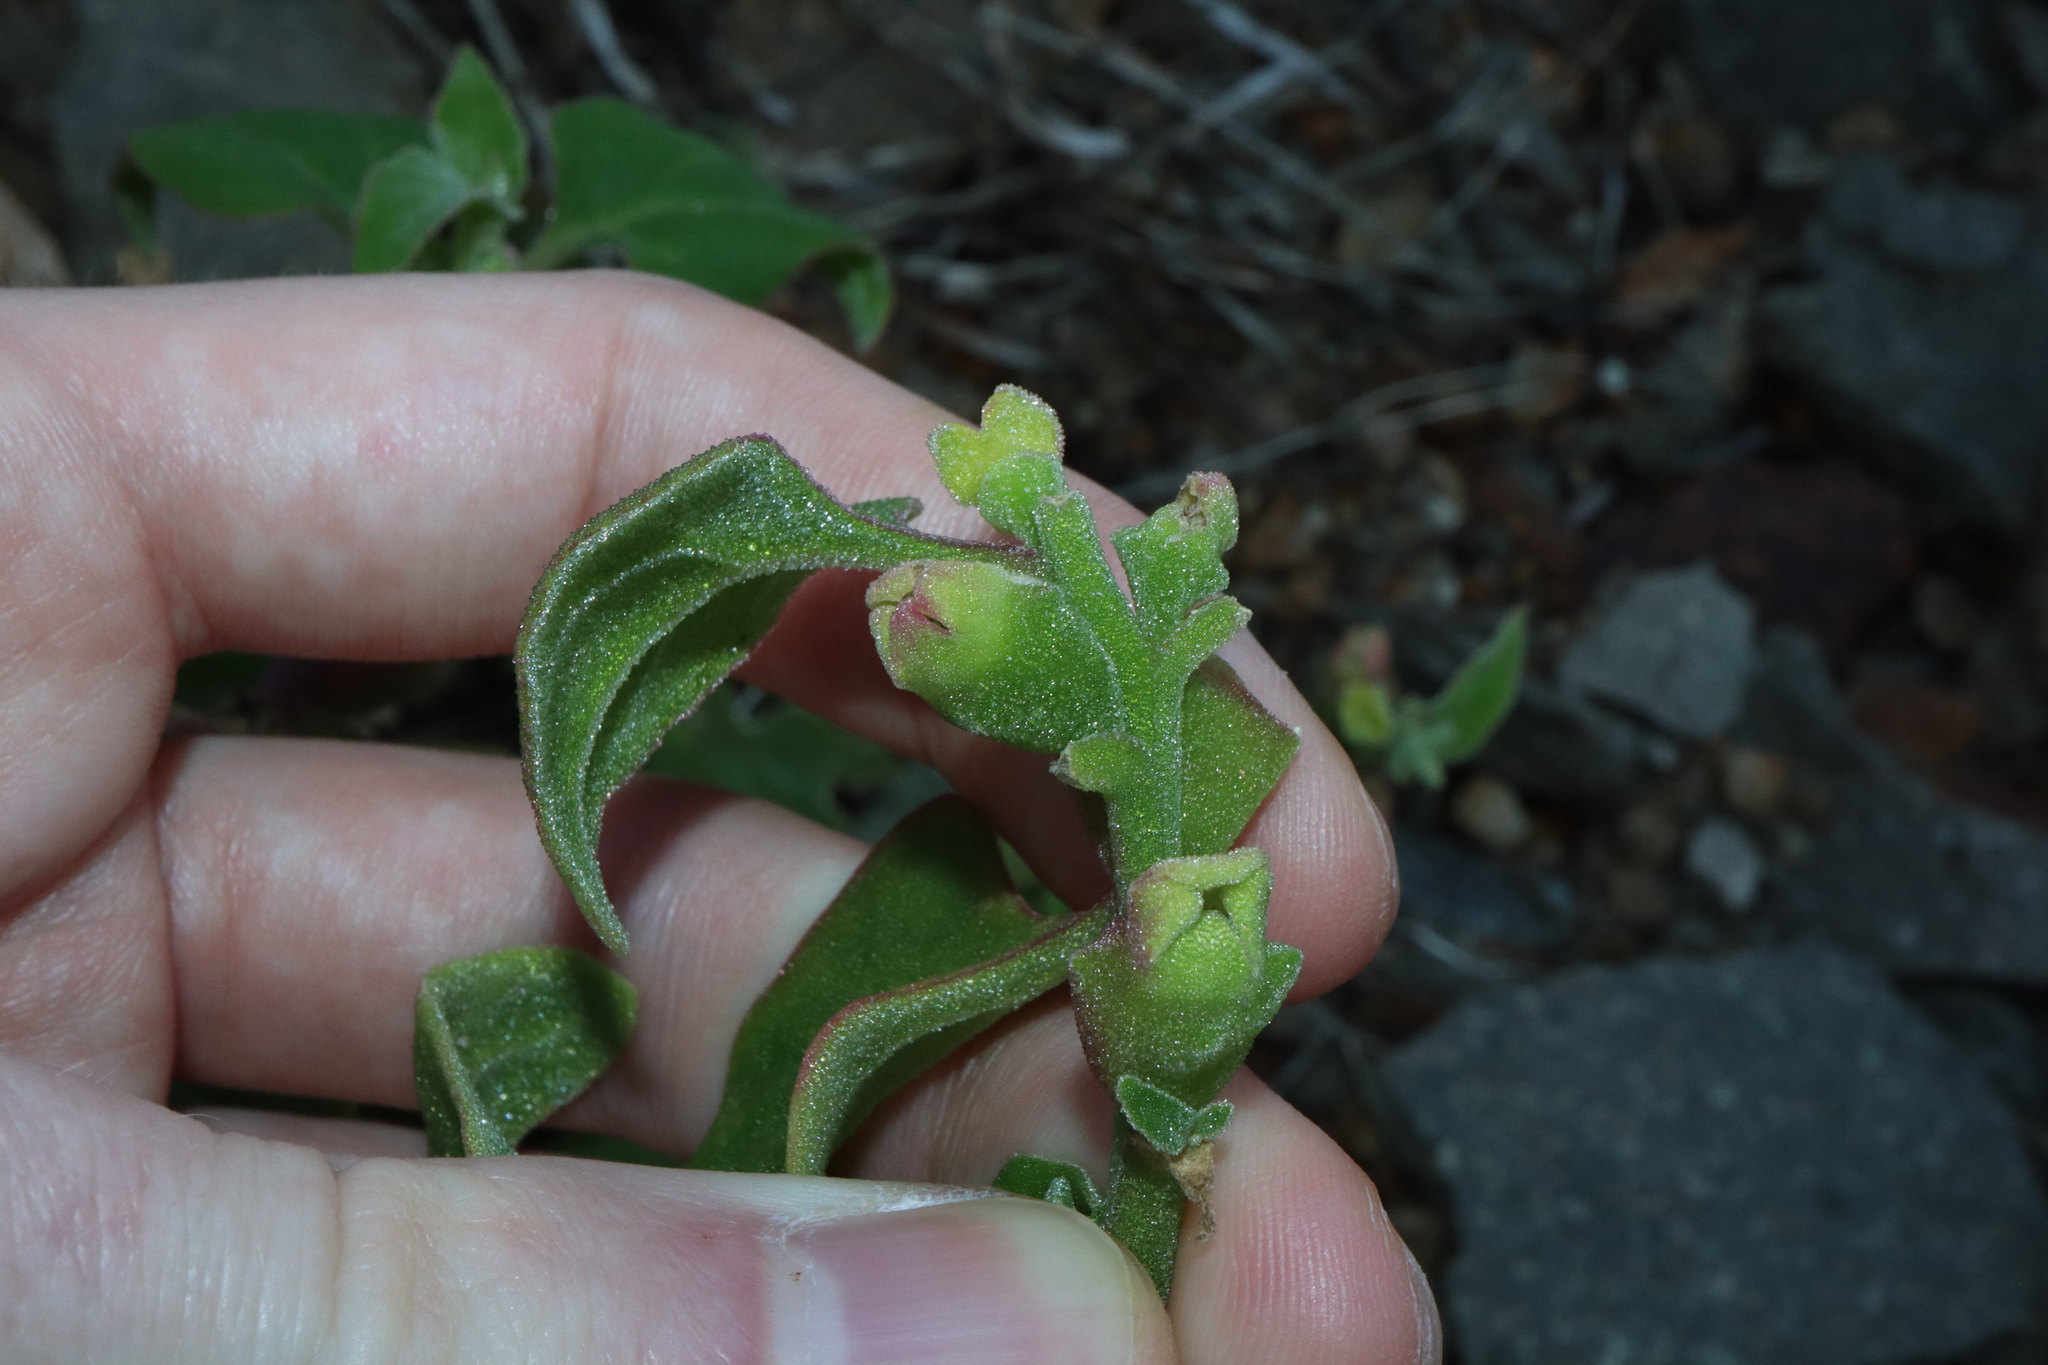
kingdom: Plantae
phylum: Tracheophyta
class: Magnoliopsida
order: Caryophyllales
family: Aizoaceae
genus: Tetragonia
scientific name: Tetragonia tetragonoides
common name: New zealand-spinach
